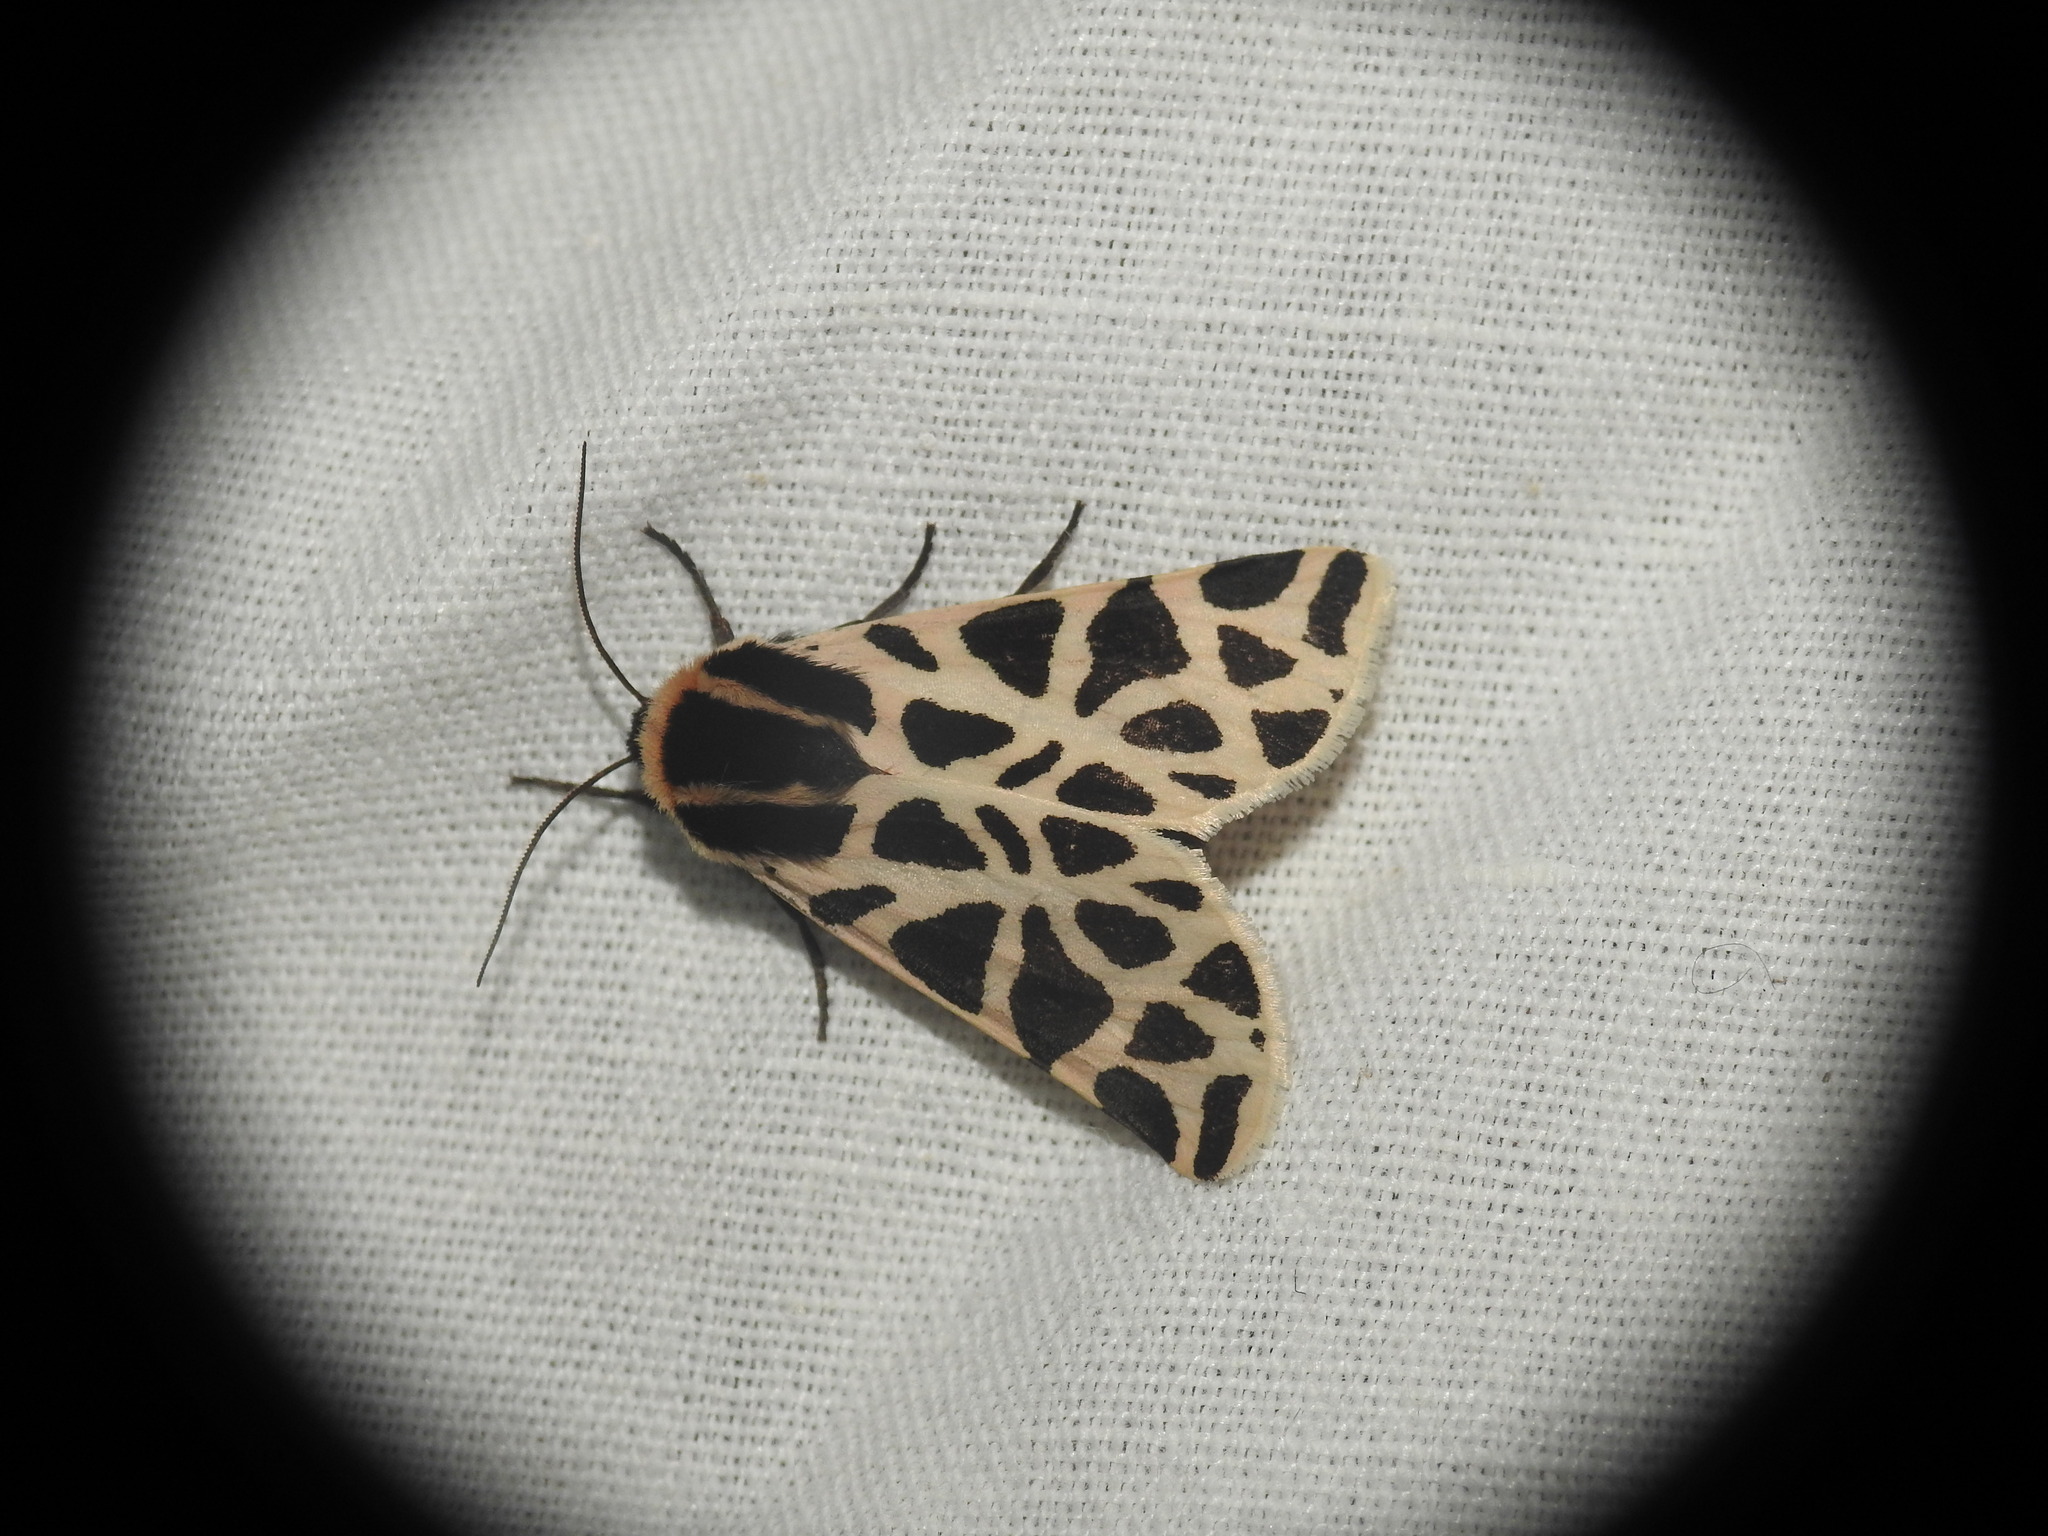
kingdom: Animalia
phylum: Arthropoda
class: Insecta
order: Lepidoptera
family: Erebidae
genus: Cymbalophora
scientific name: Cymbalophora pudica
